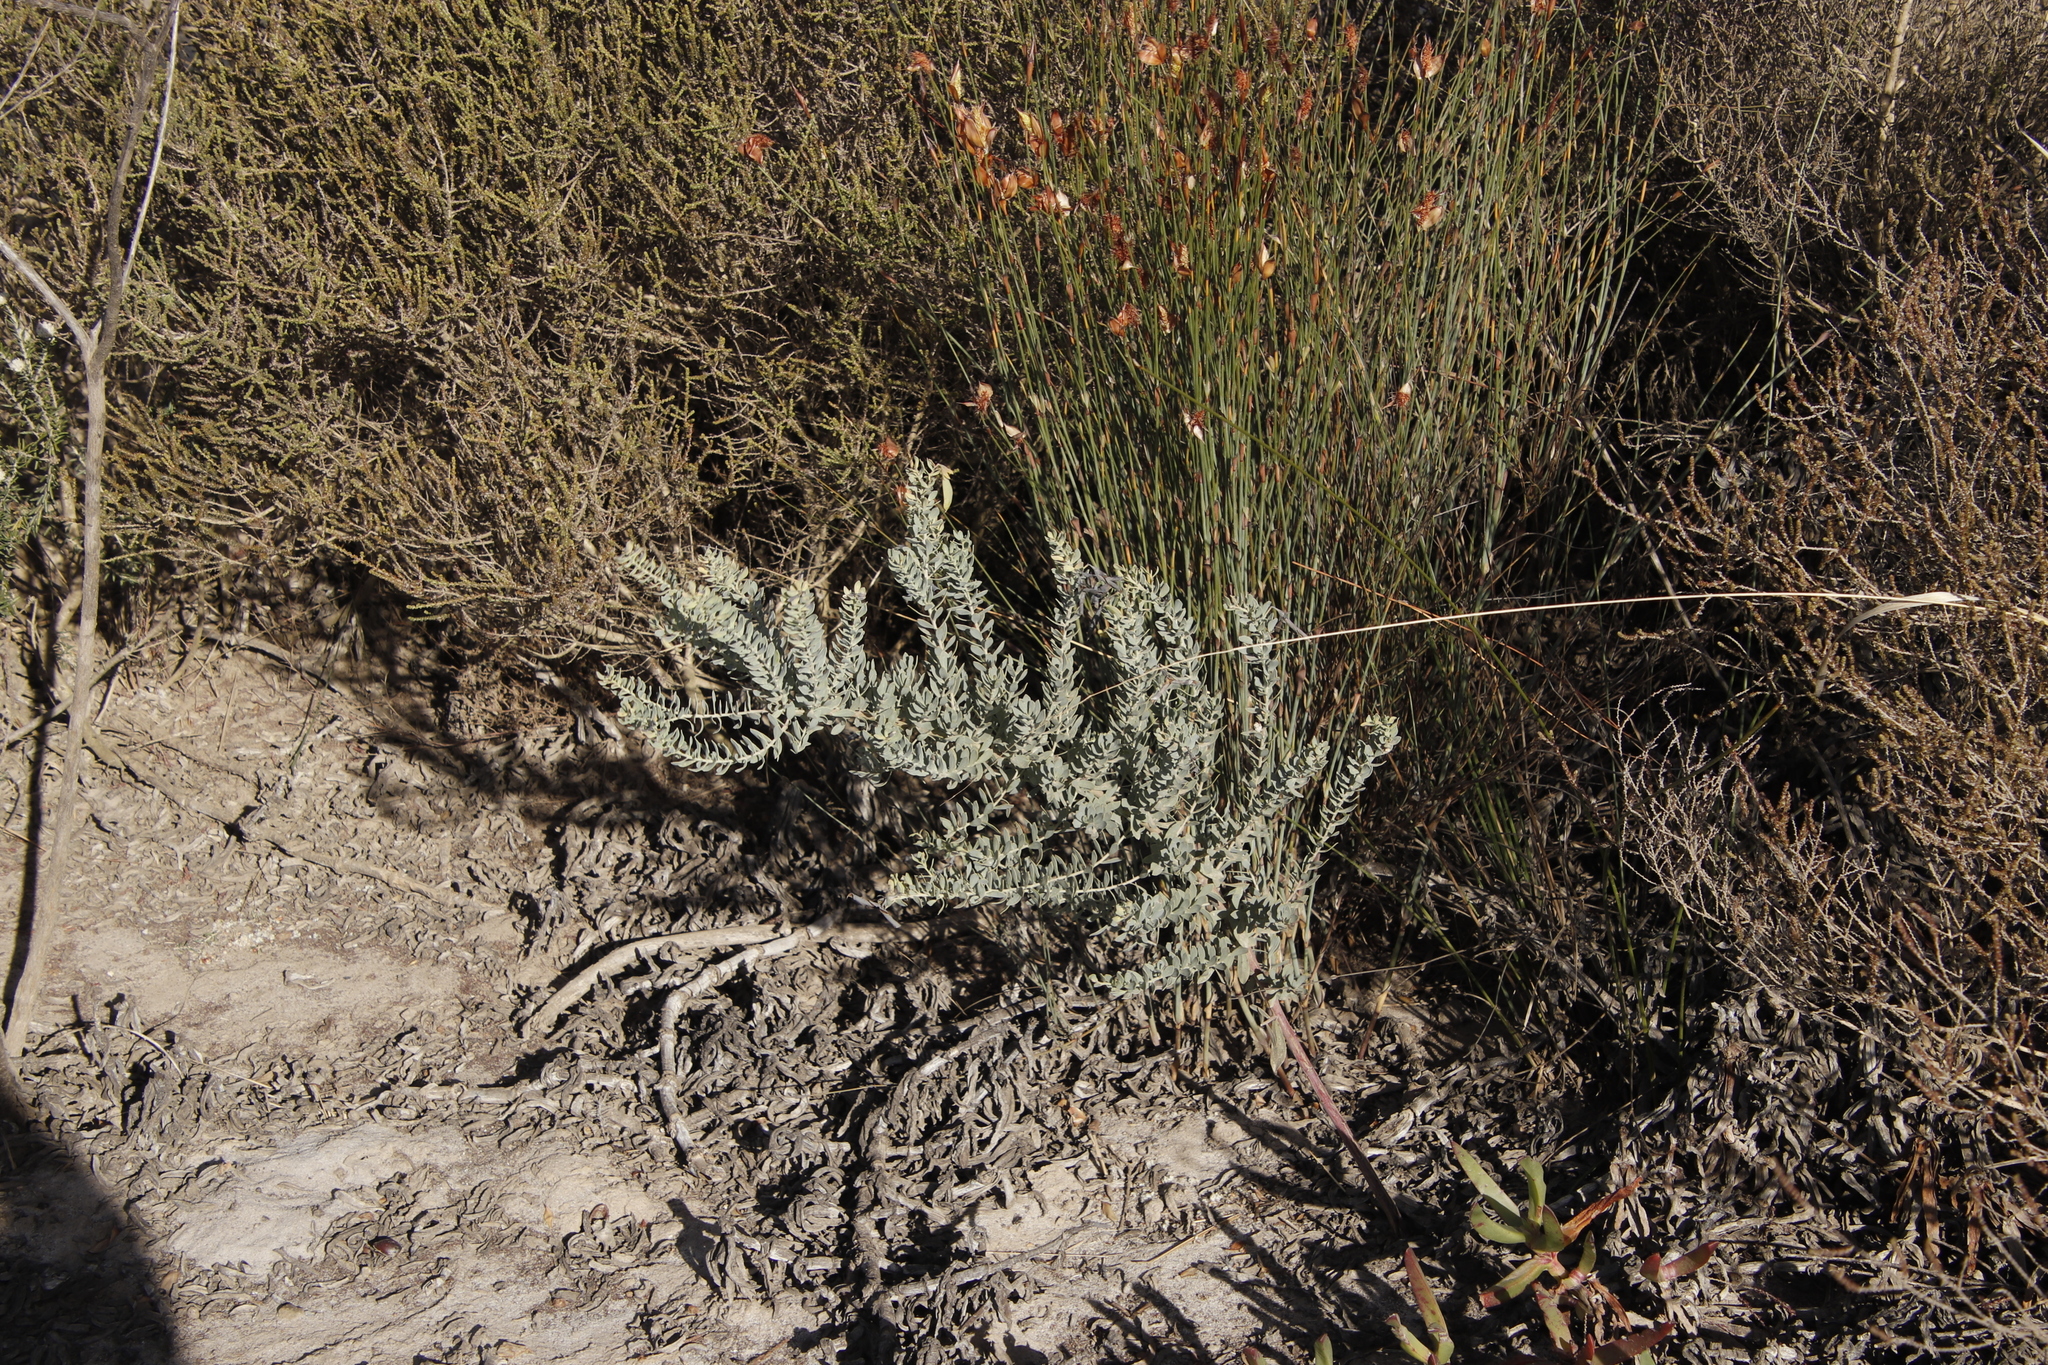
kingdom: Plantae
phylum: Tracheophyta
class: Magnoliopsida
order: Fabales
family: Fabaceae
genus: Rafnia
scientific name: Rafnia angulata
